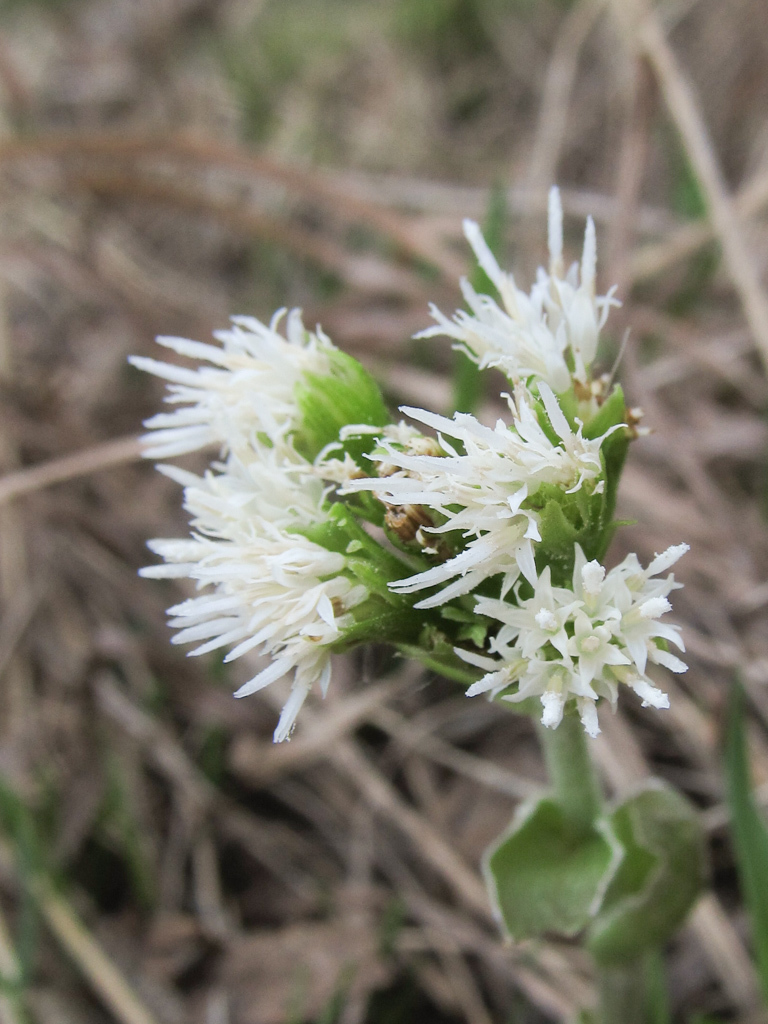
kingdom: Plantae
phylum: Tracheophyta
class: Magnoliopsida
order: Asterales
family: Asteraceae
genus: Petasites
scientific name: Petasites albus
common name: White butterbur
